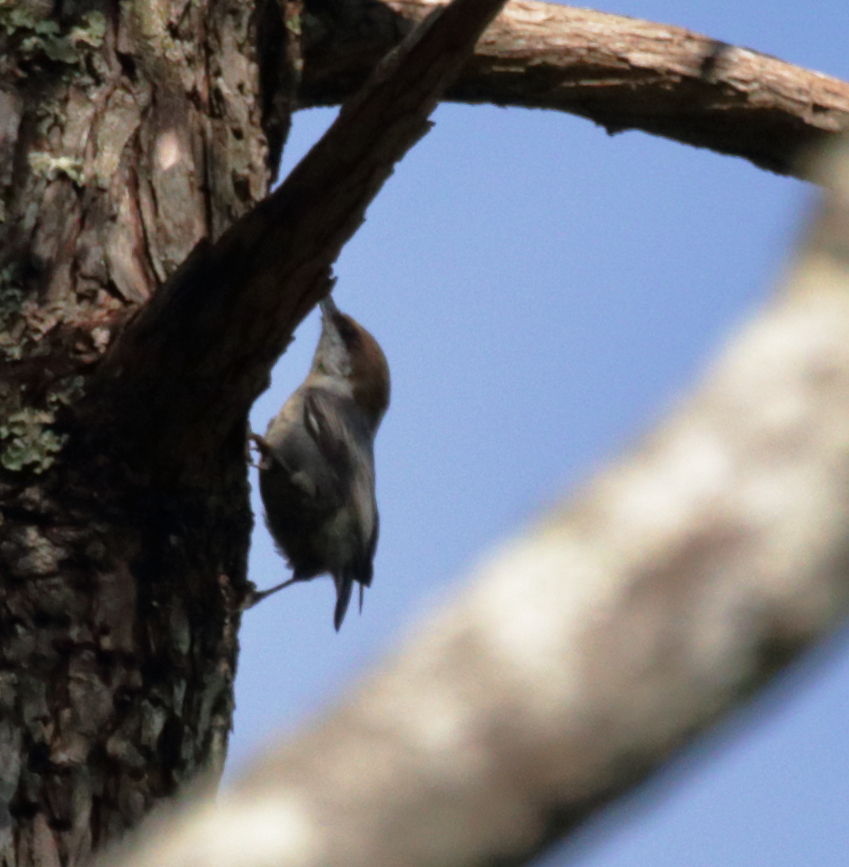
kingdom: Animalia
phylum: Chordata
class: Aves
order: Passeriformes
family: Sittidae
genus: Sitta
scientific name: Sitta pusilla
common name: Brown-headed nuthatch
